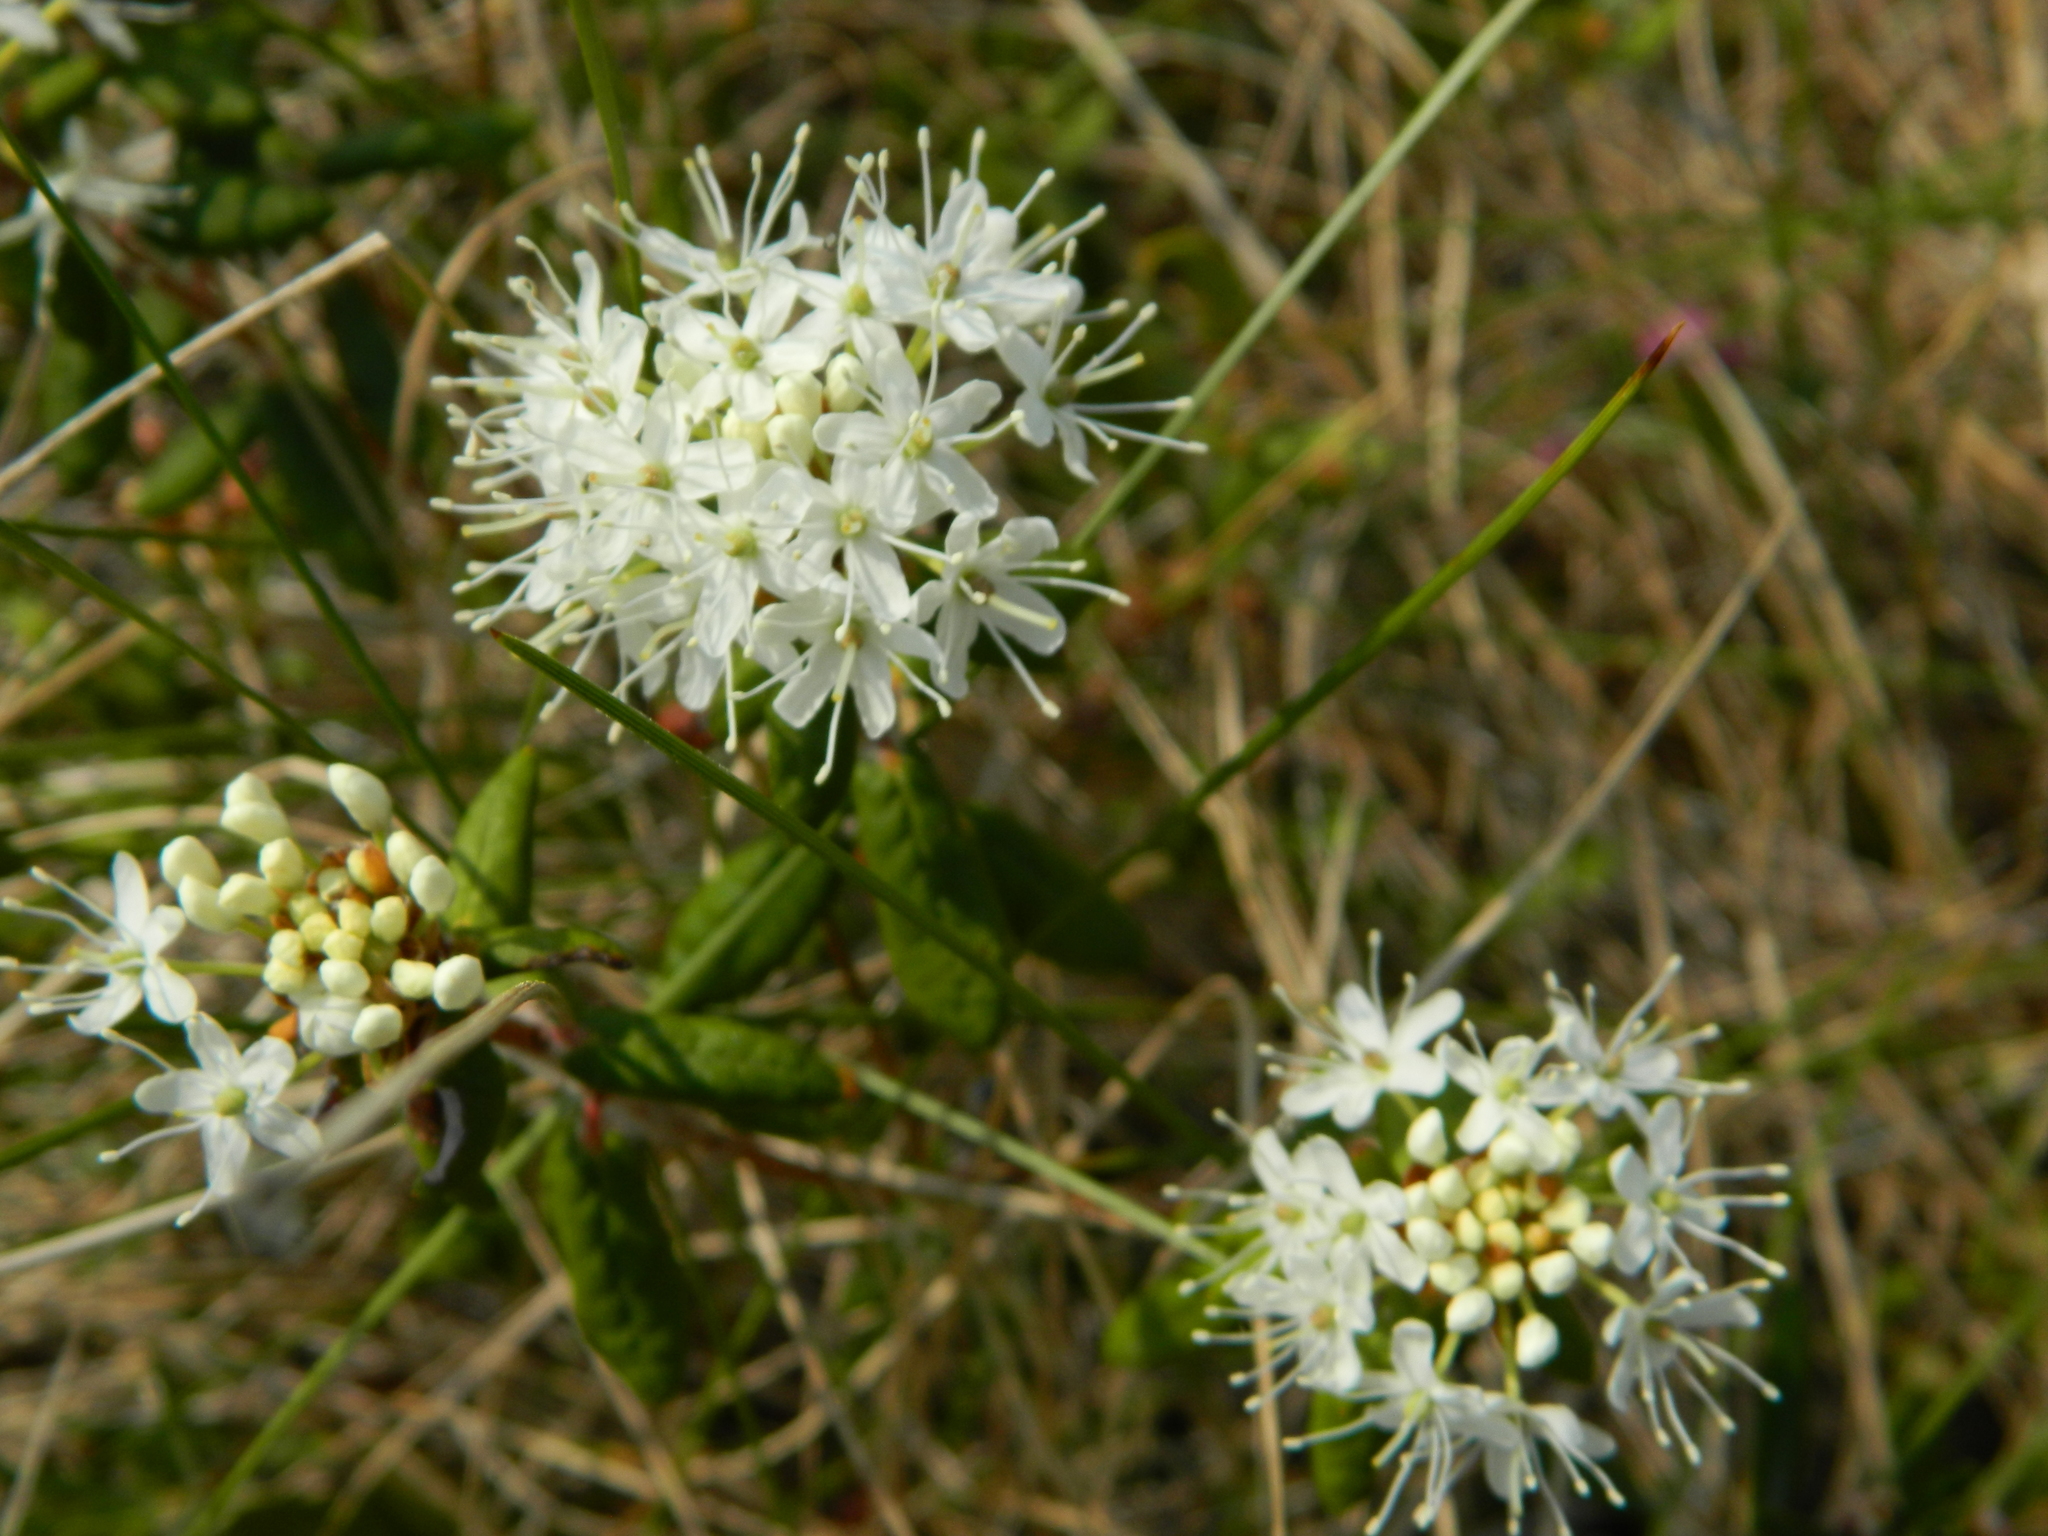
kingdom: Plantae
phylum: Tracheophyta
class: Magnoliopsida
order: Ericales
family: Ericaceae
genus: Rhododendron
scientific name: Rhododendron groenlandicum
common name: Bog labrador tea
